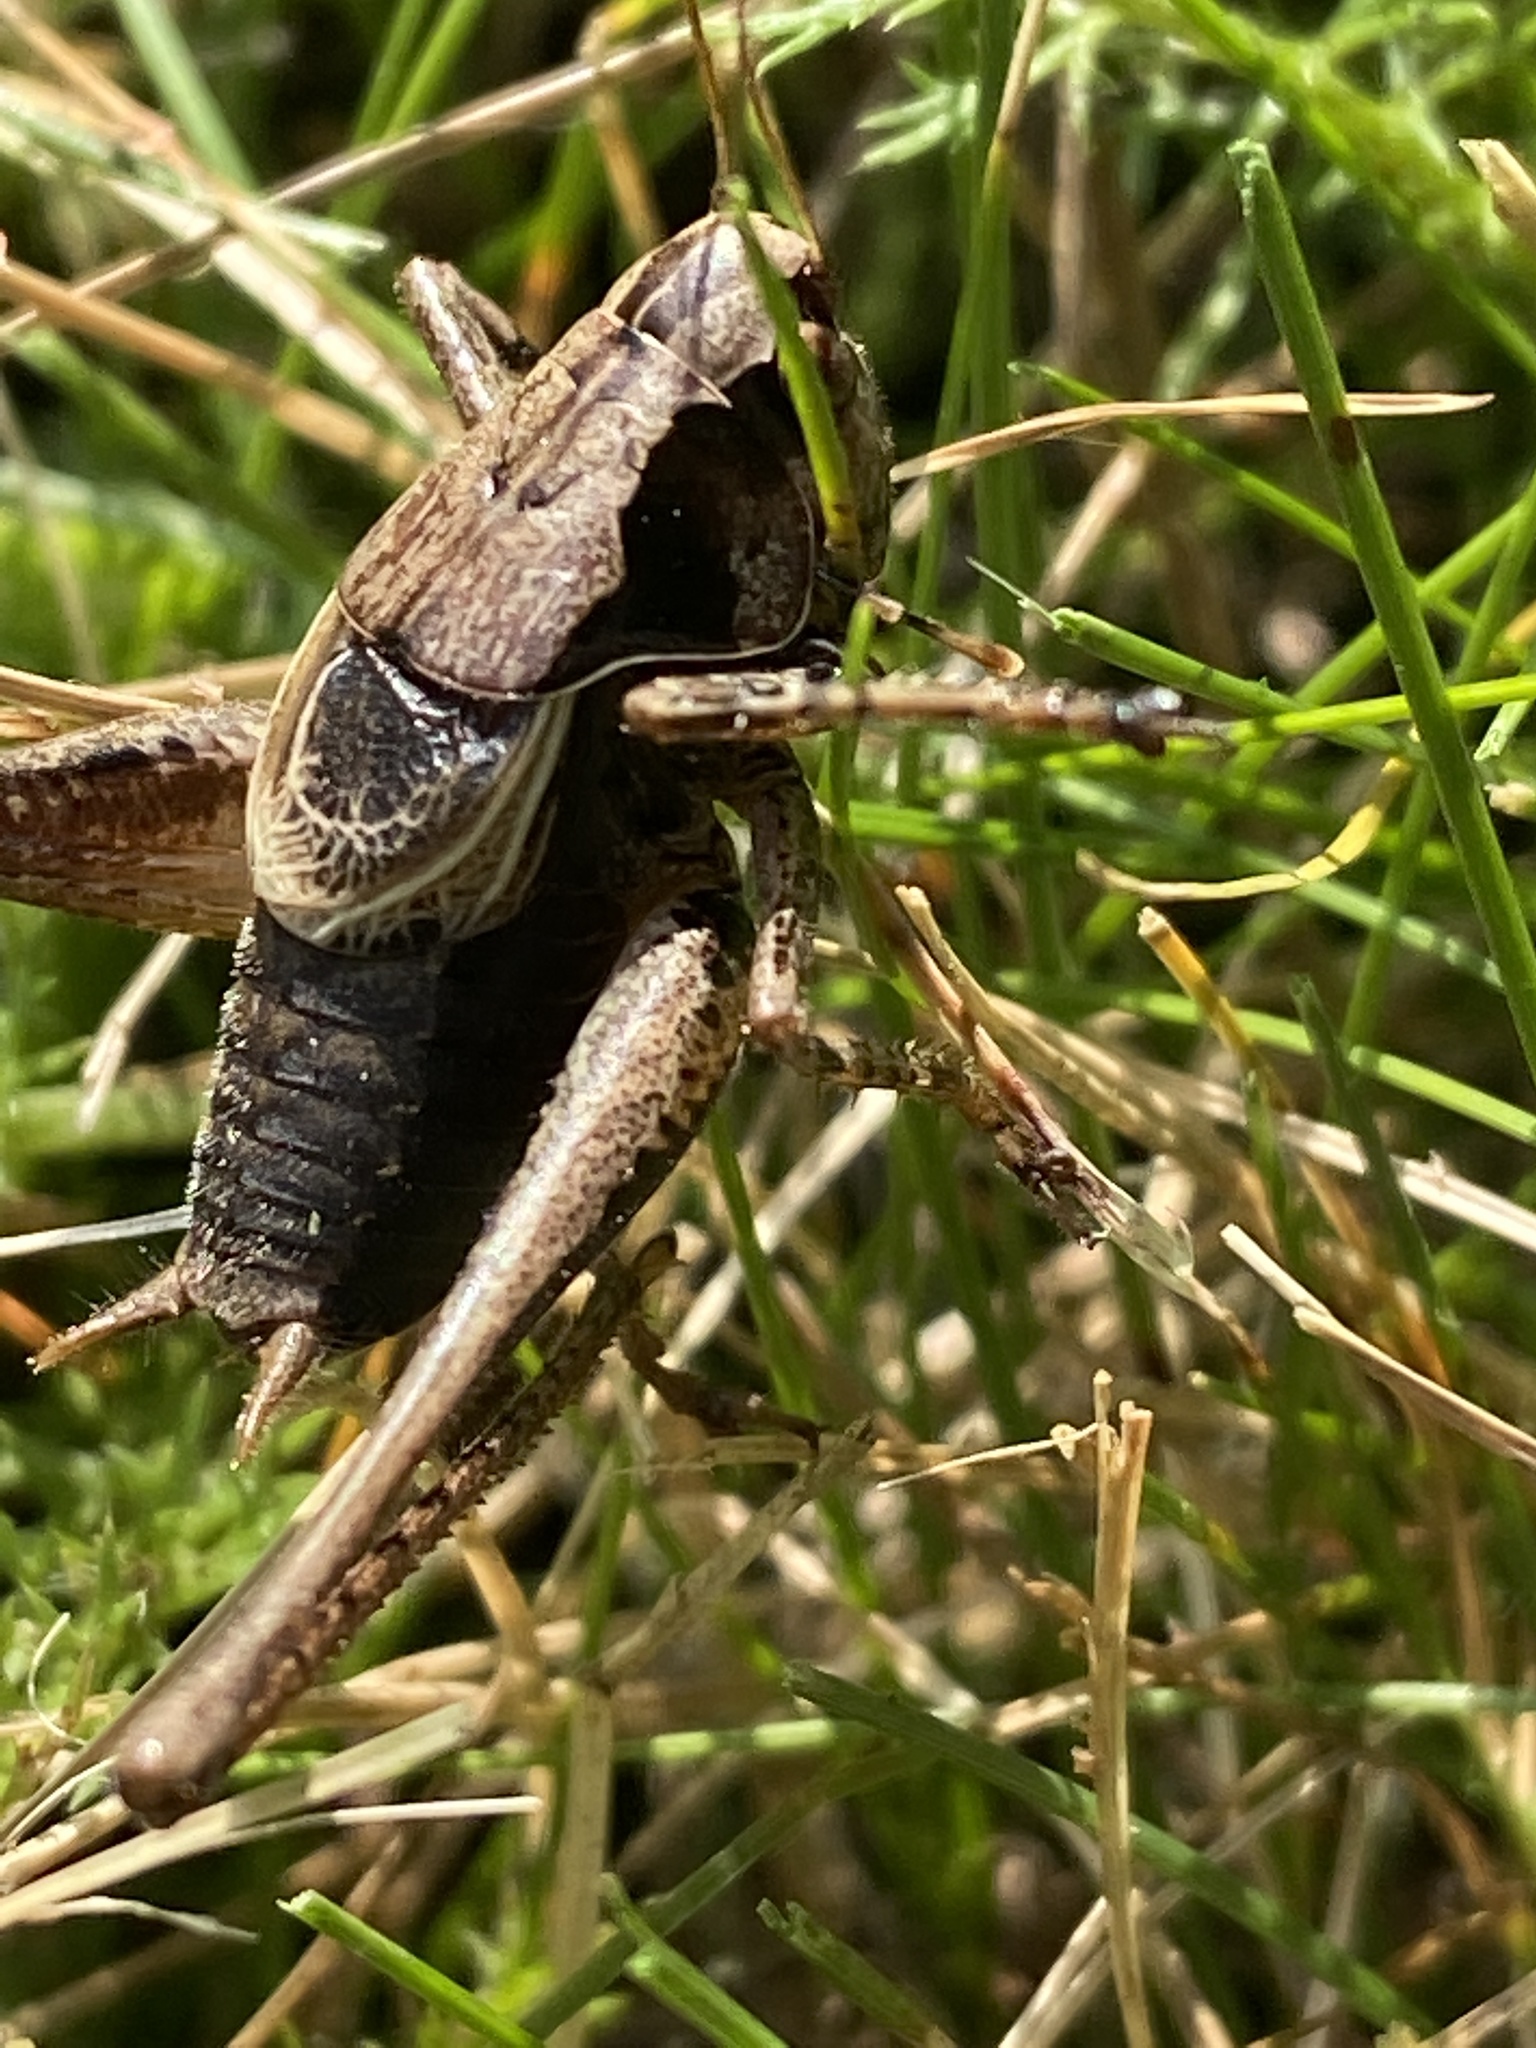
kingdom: Animalia
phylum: Arthropoda
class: Insecta
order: Orthoptera
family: Tettigoniidae
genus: Pholidoptera
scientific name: Pholidoptera griseoaptera
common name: Dark bush-cricket
